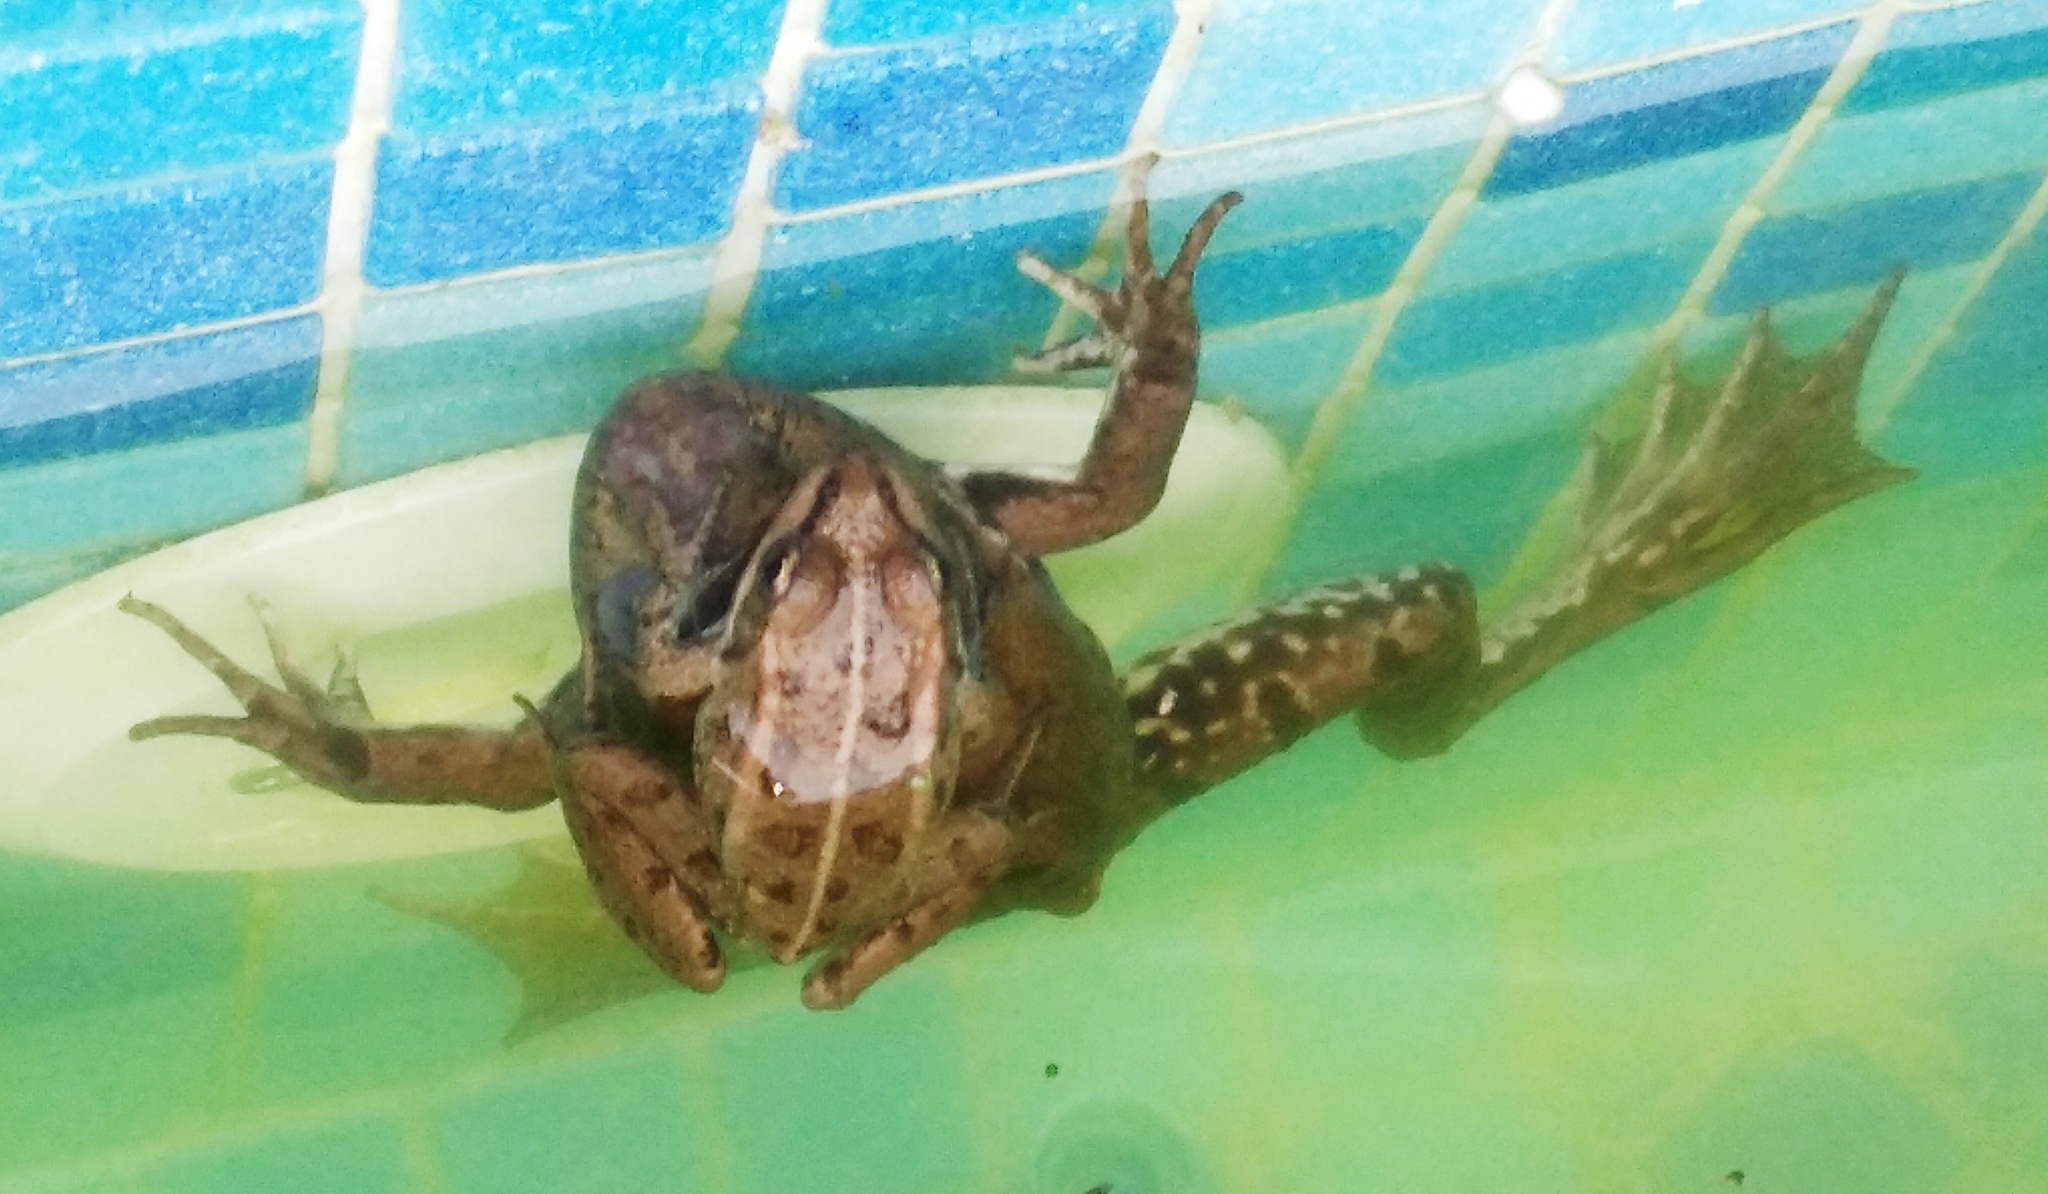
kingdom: Animalia
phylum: Chordata
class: Amphibia
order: Anura
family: Ranidae
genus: Pelophylax
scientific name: Pelophylax ridibundus
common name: Marsh frog
